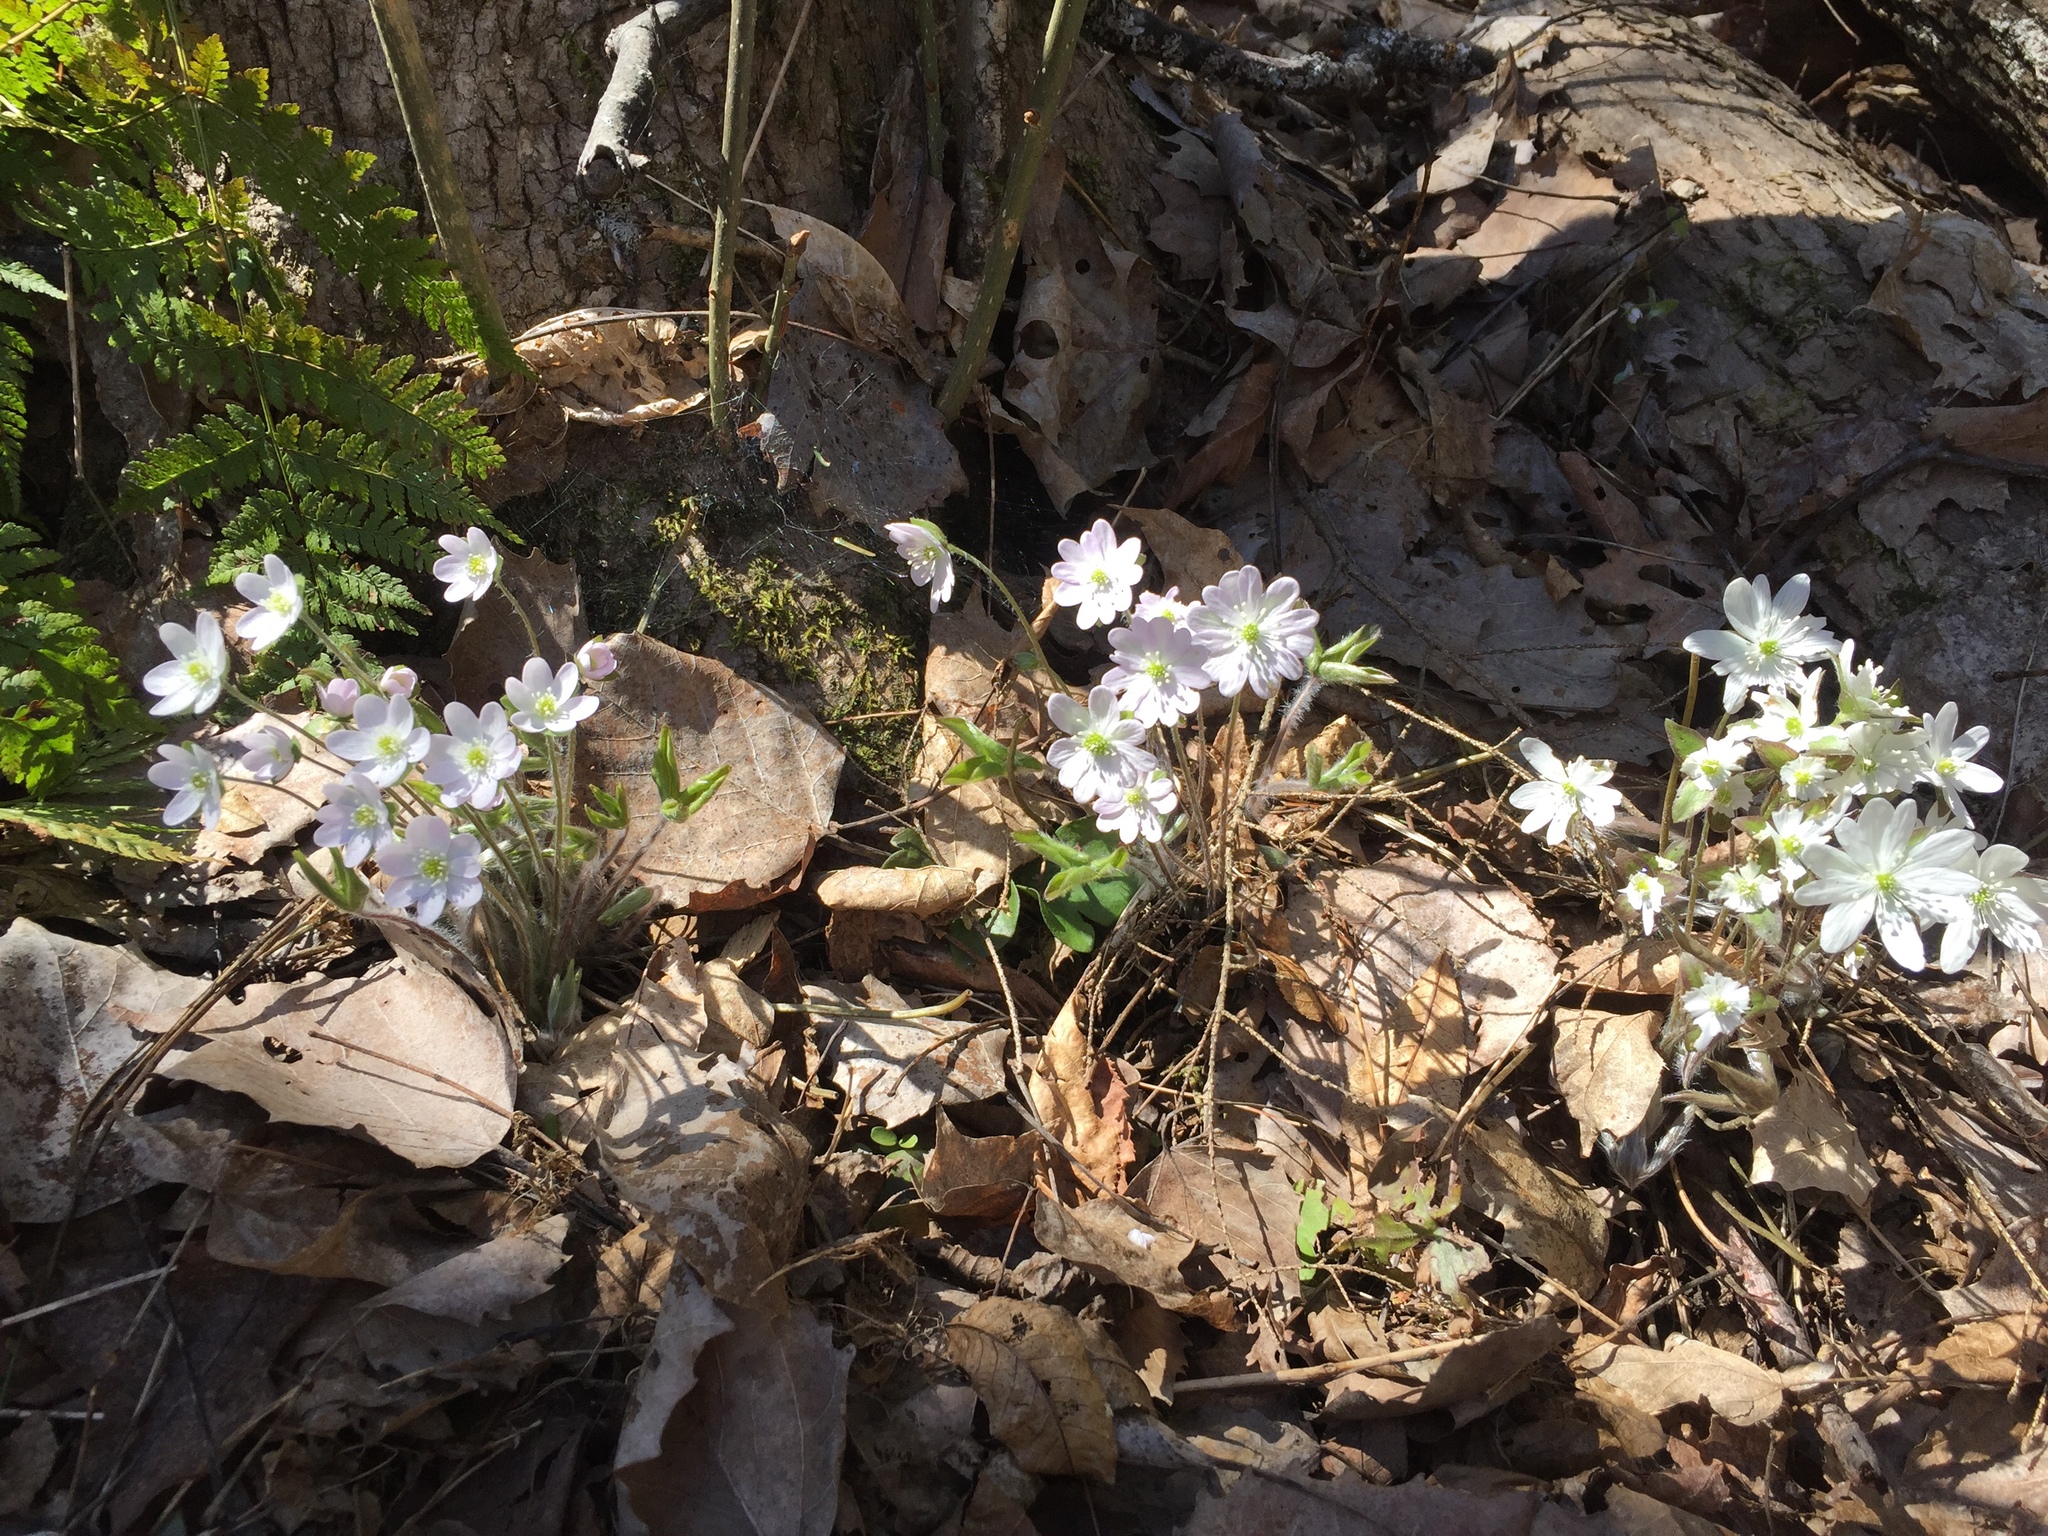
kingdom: Plantae
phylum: Tracheophyta
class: Magnoliopsida
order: Ranunculales
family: Ranunculaceae
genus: Hepatica
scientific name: Hepatica acutiloba
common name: Sharp-lobed hepatica
